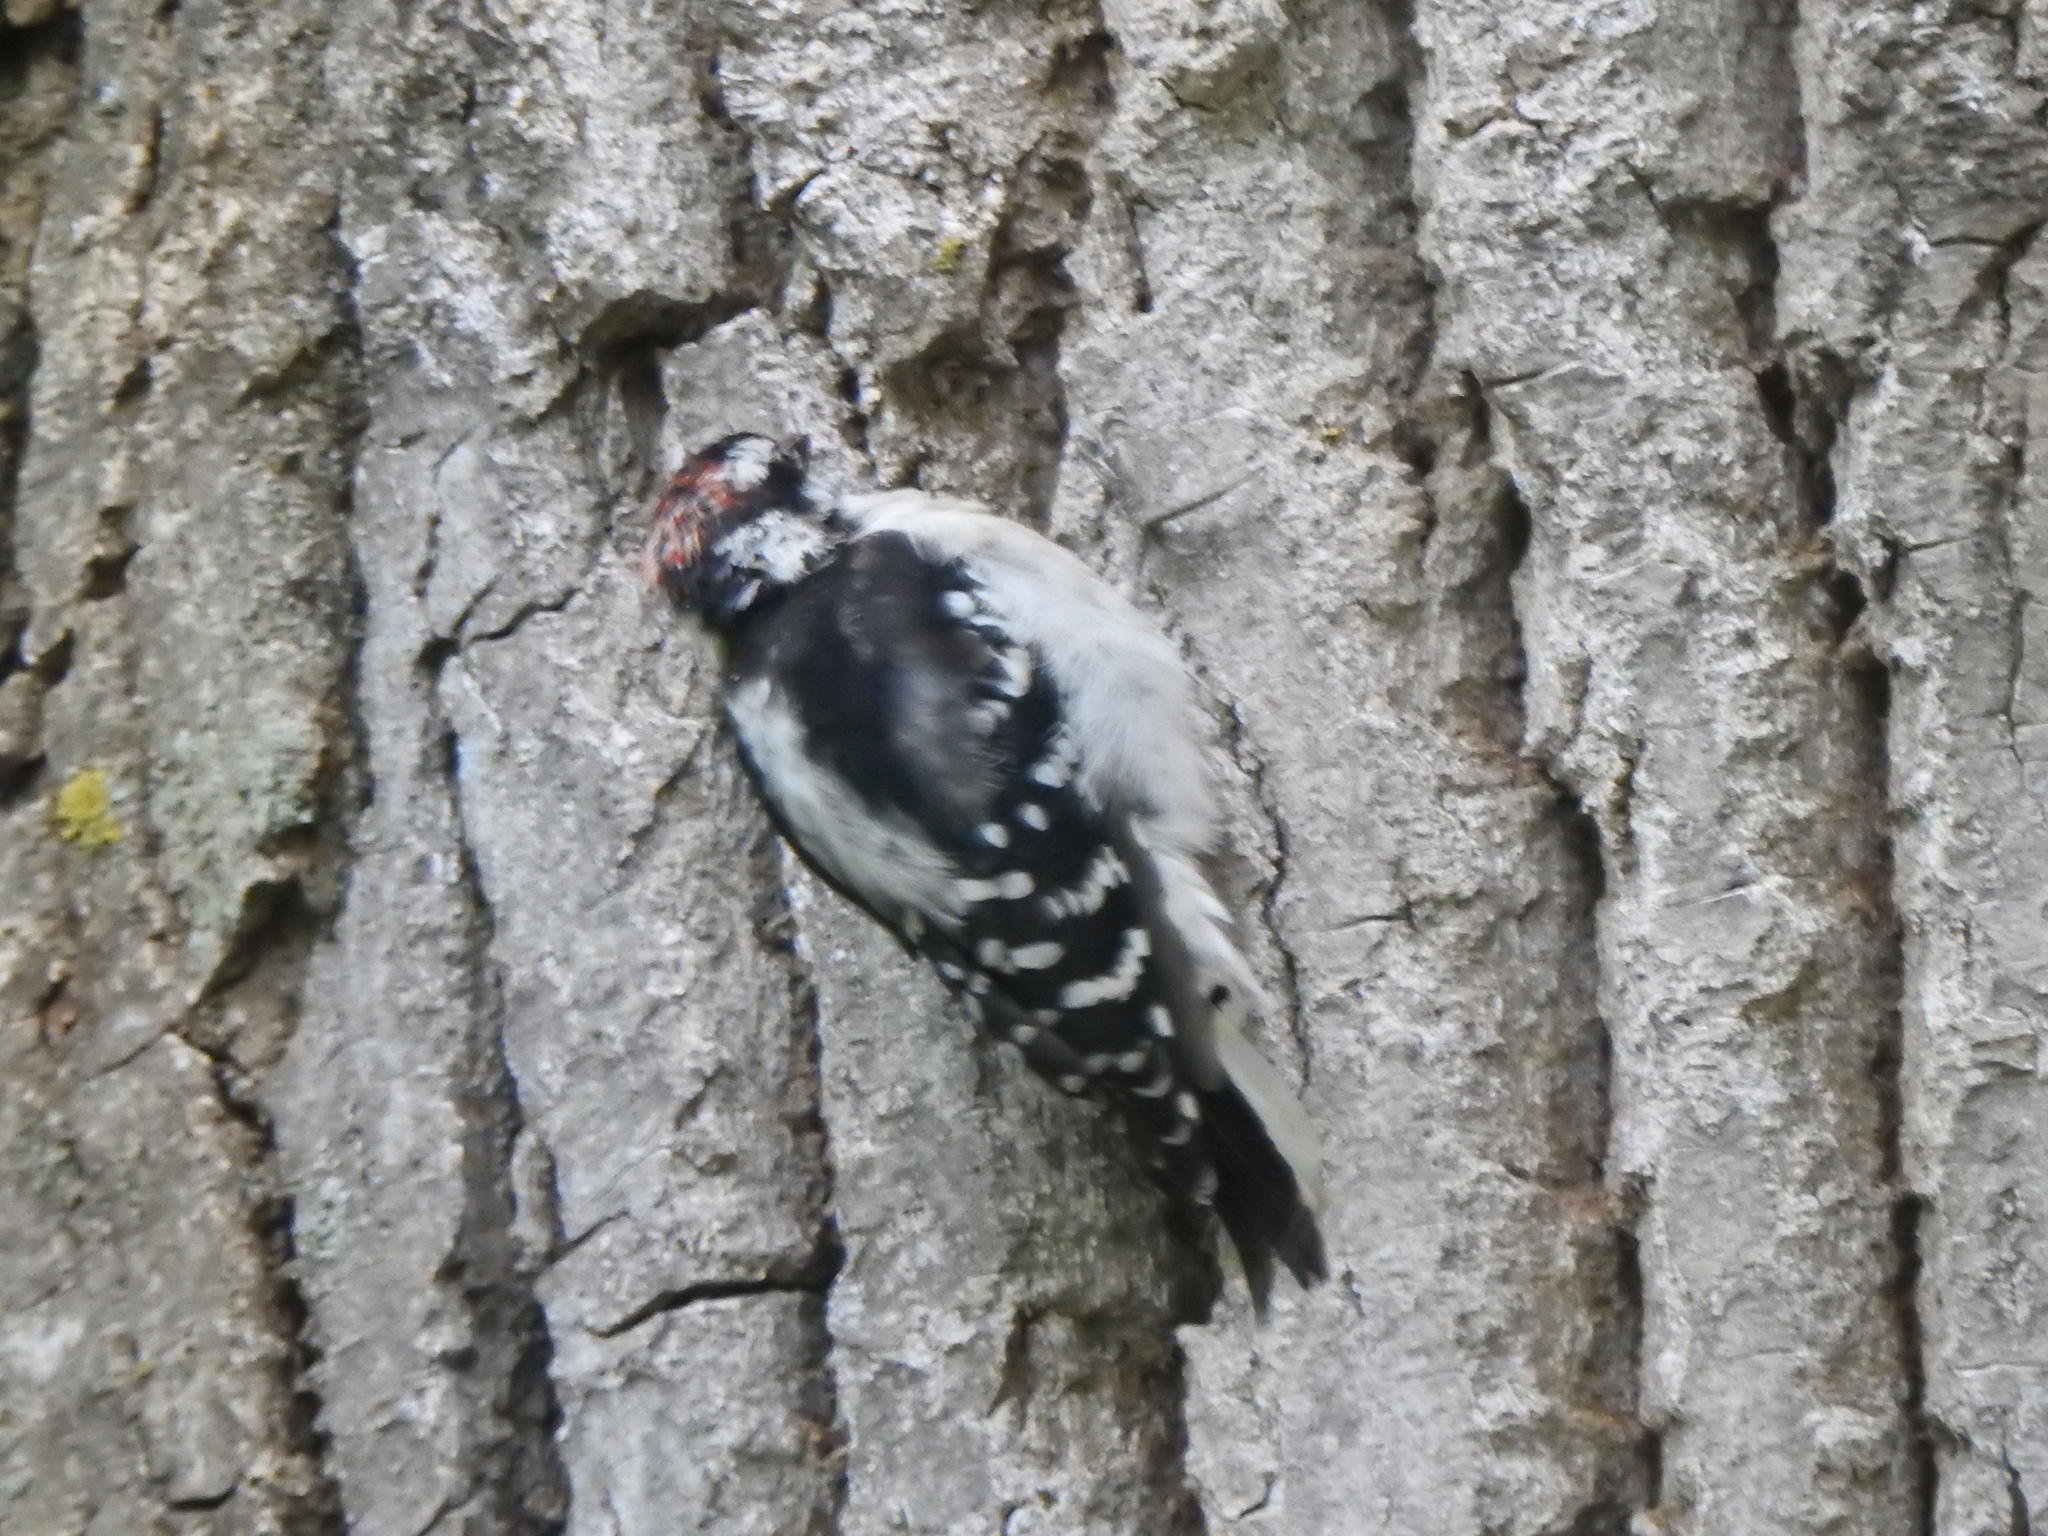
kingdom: Animalia
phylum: Chordata
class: Aves
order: Piciformes
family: Picidae
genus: Dryobates
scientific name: Dryobates pubescens
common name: Downy woodpecker
